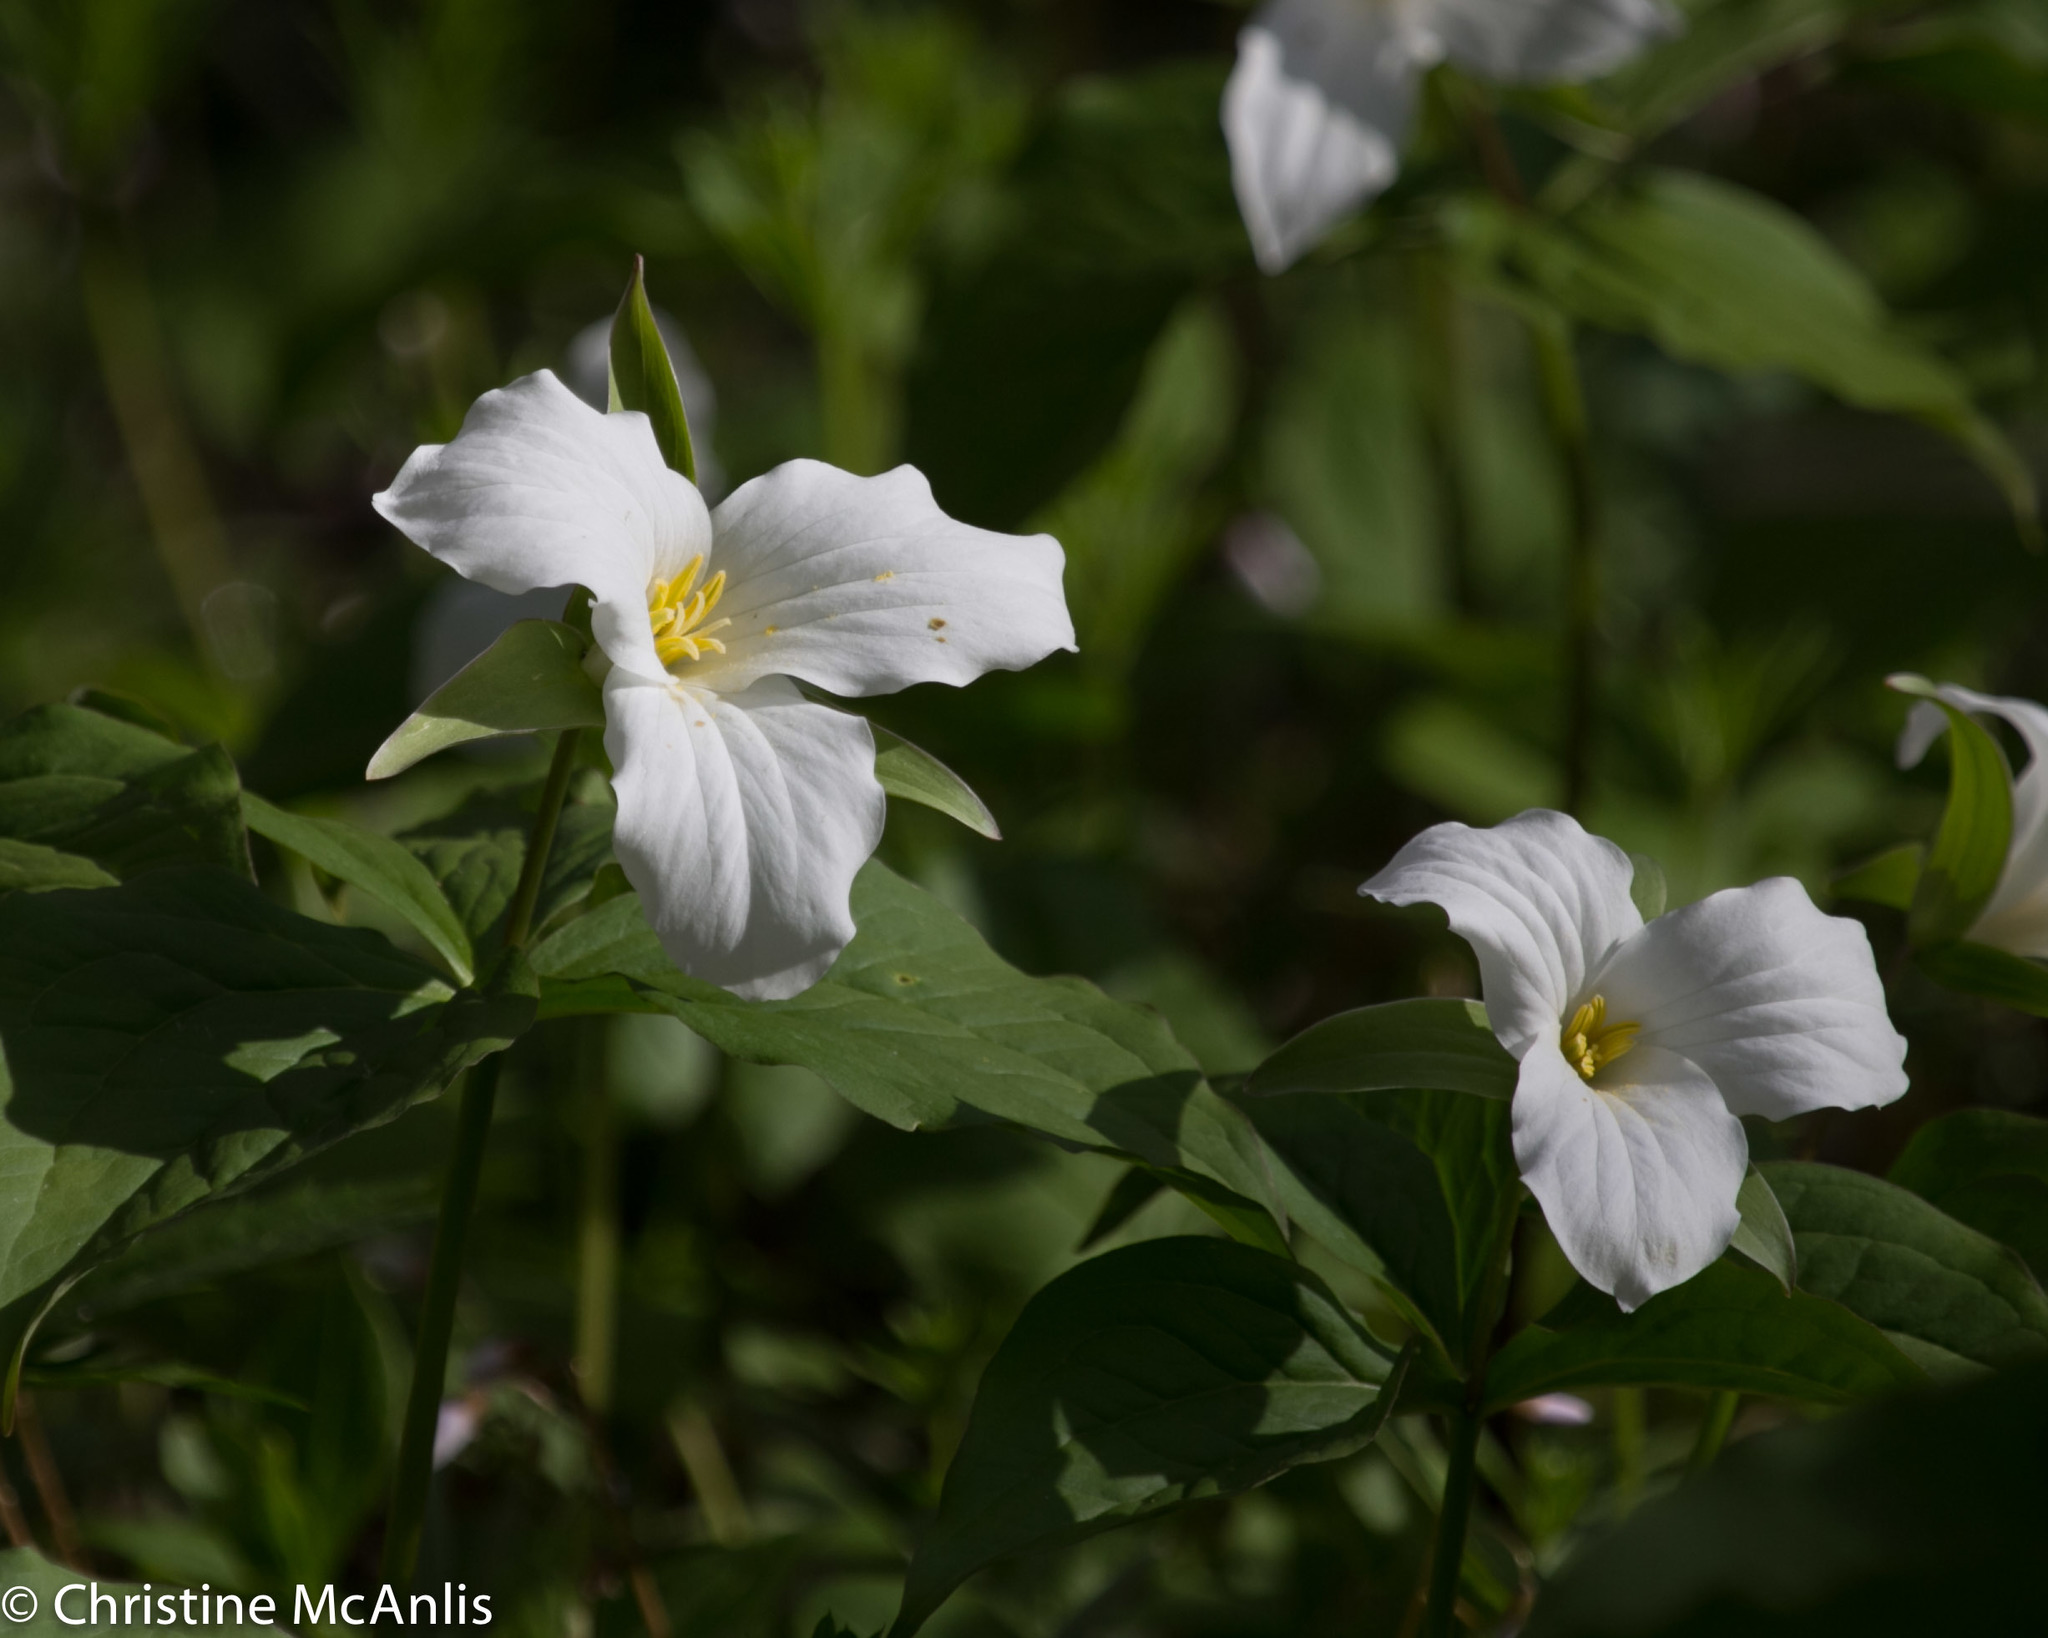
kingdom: Plantae
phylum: Tracheophyta
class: Liliopsida
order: Liliales
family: Melanthiaceae
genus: Trillium
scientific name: Trillium grandiflorum
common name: Great white trillium
